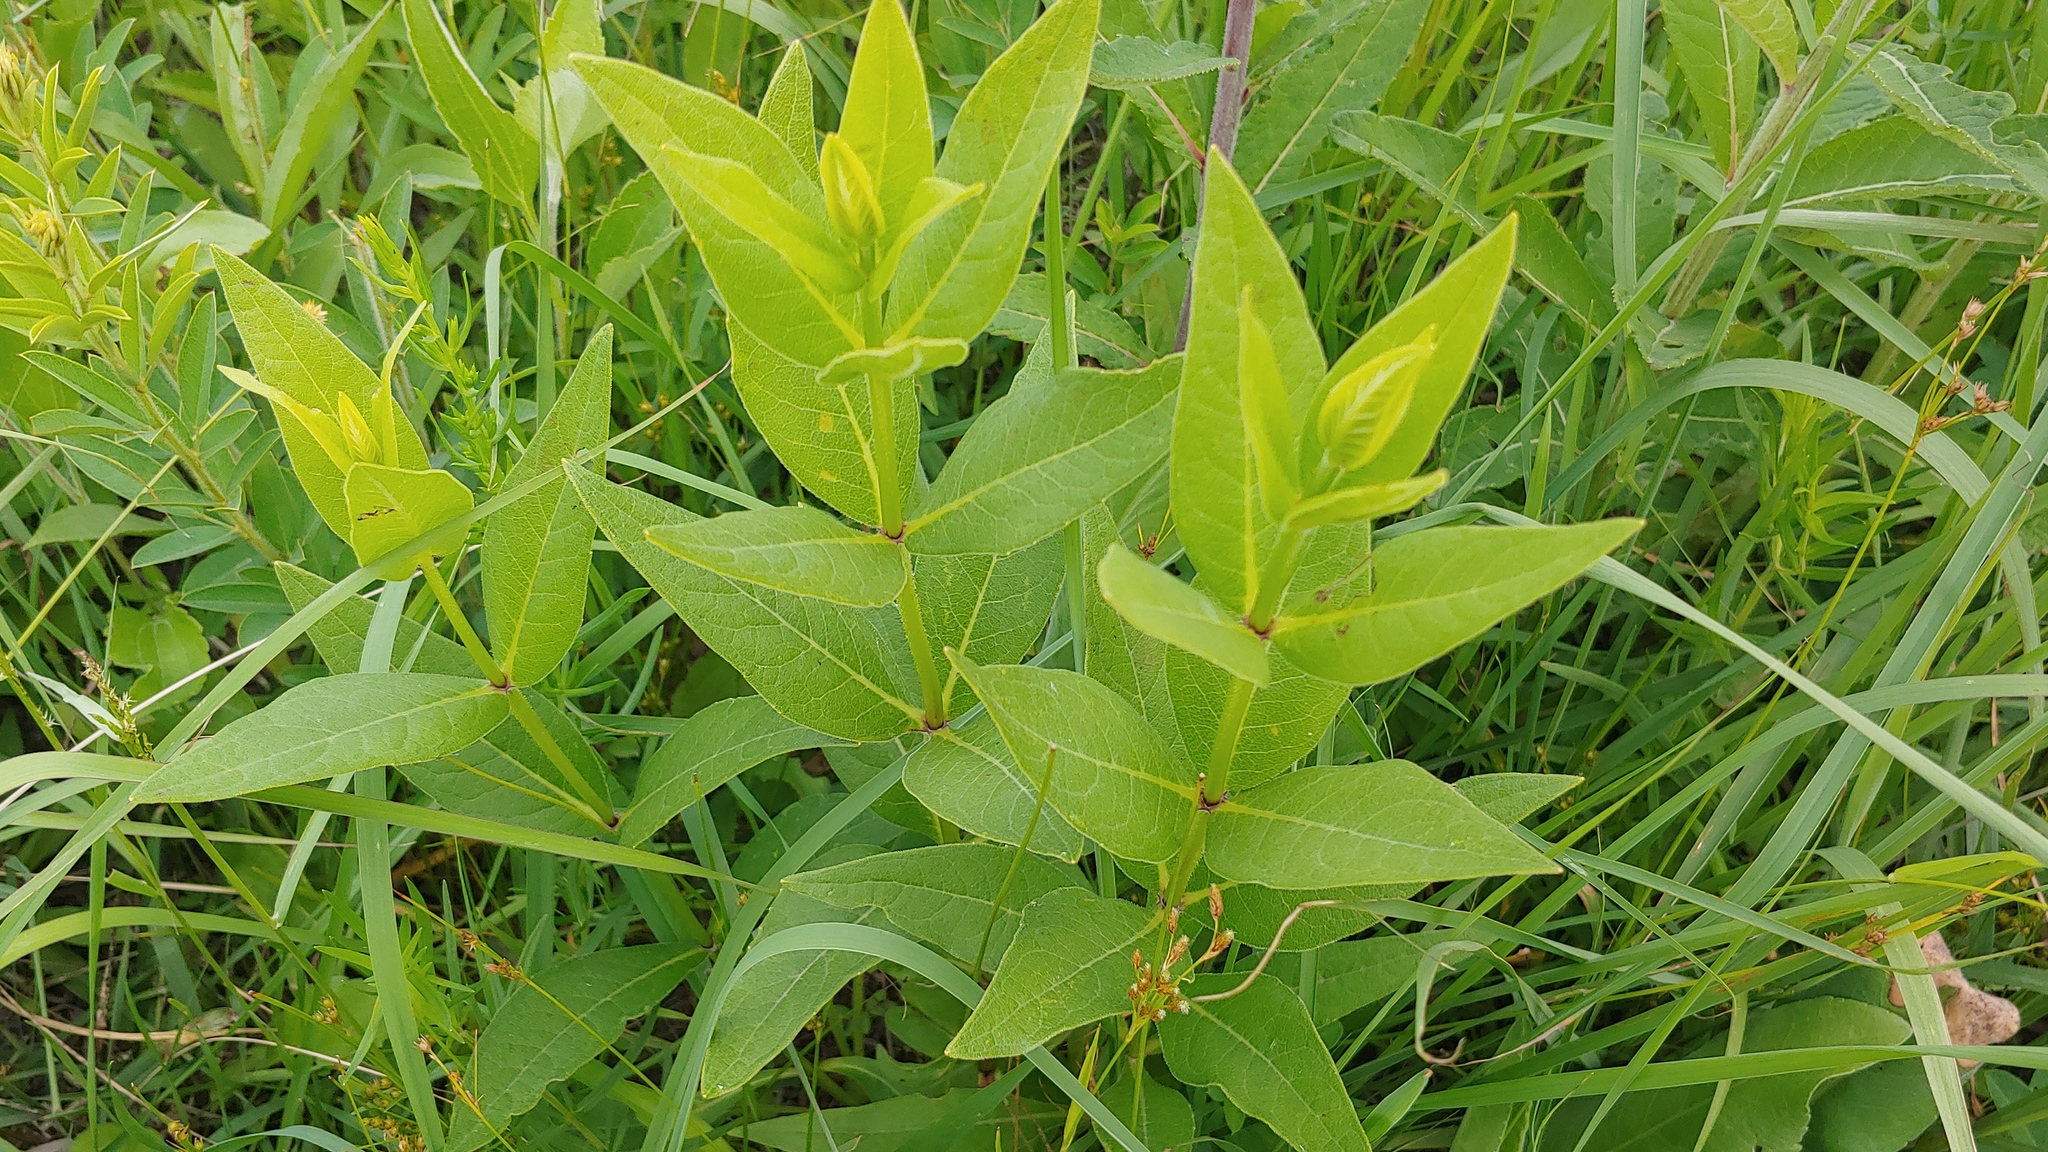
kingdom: Plantae
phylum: Tracheophyta
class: Magnoliopsida
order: Asterales
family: Asteraceae
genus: Silphium
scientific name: Silphium integrifolium
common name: Whole-leaf rosinweed
